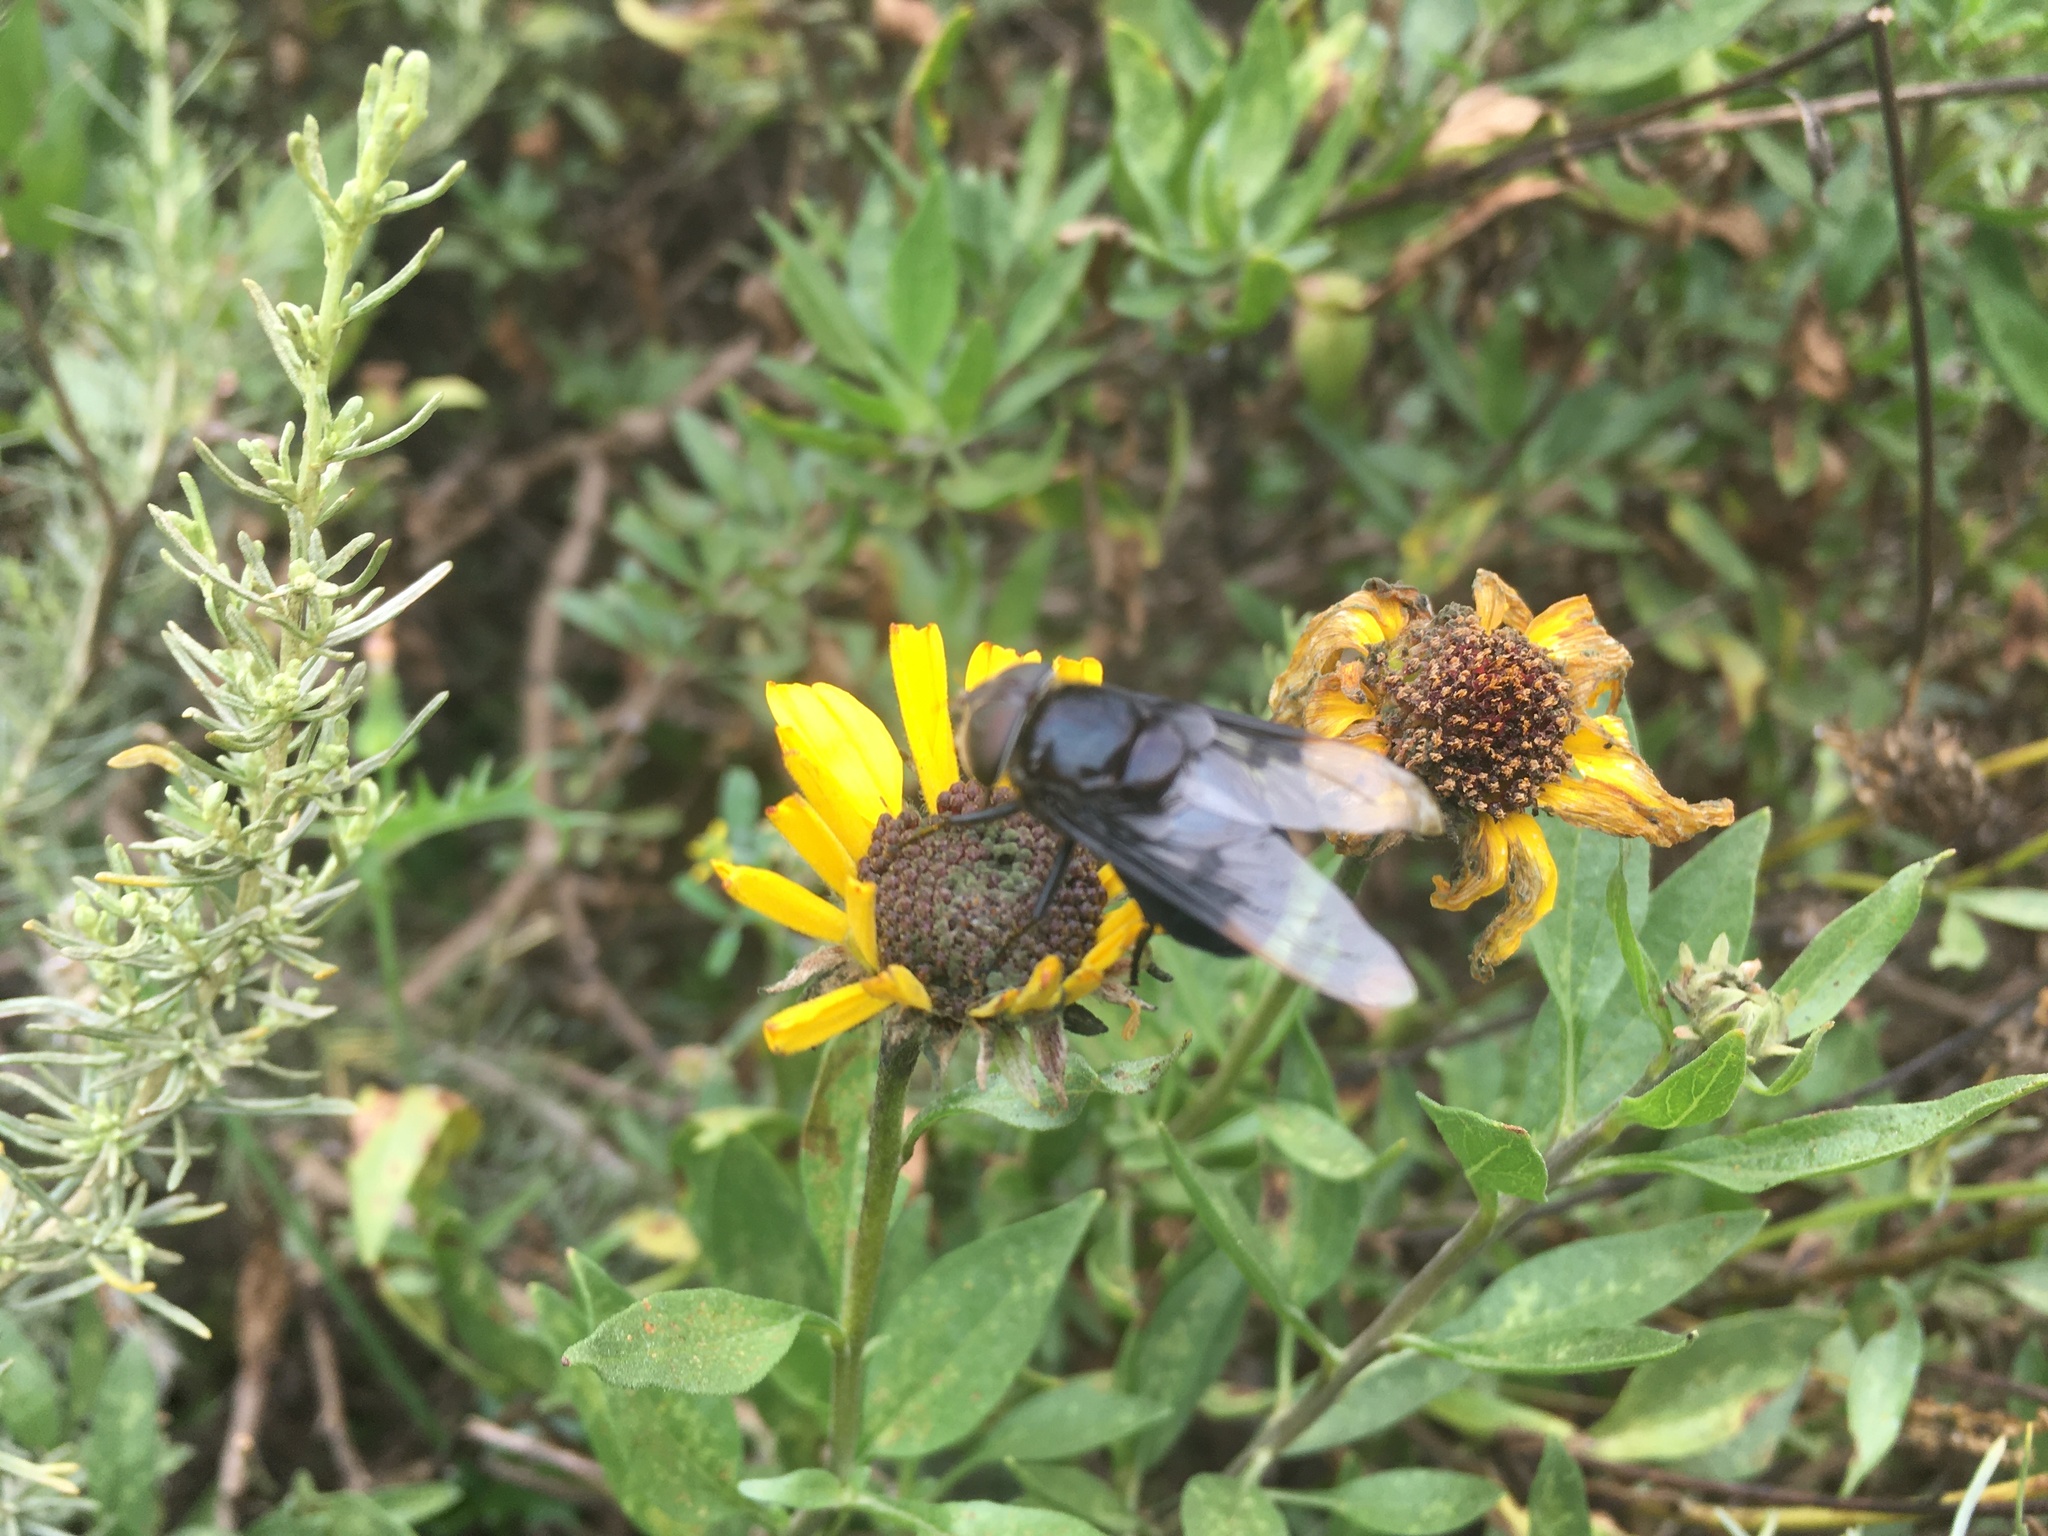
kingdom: Animalia
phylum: Arthropoda
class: Insecta
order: Diptera
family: Syrphidae
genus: Copestylum
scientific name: Copestylum mexicanum
